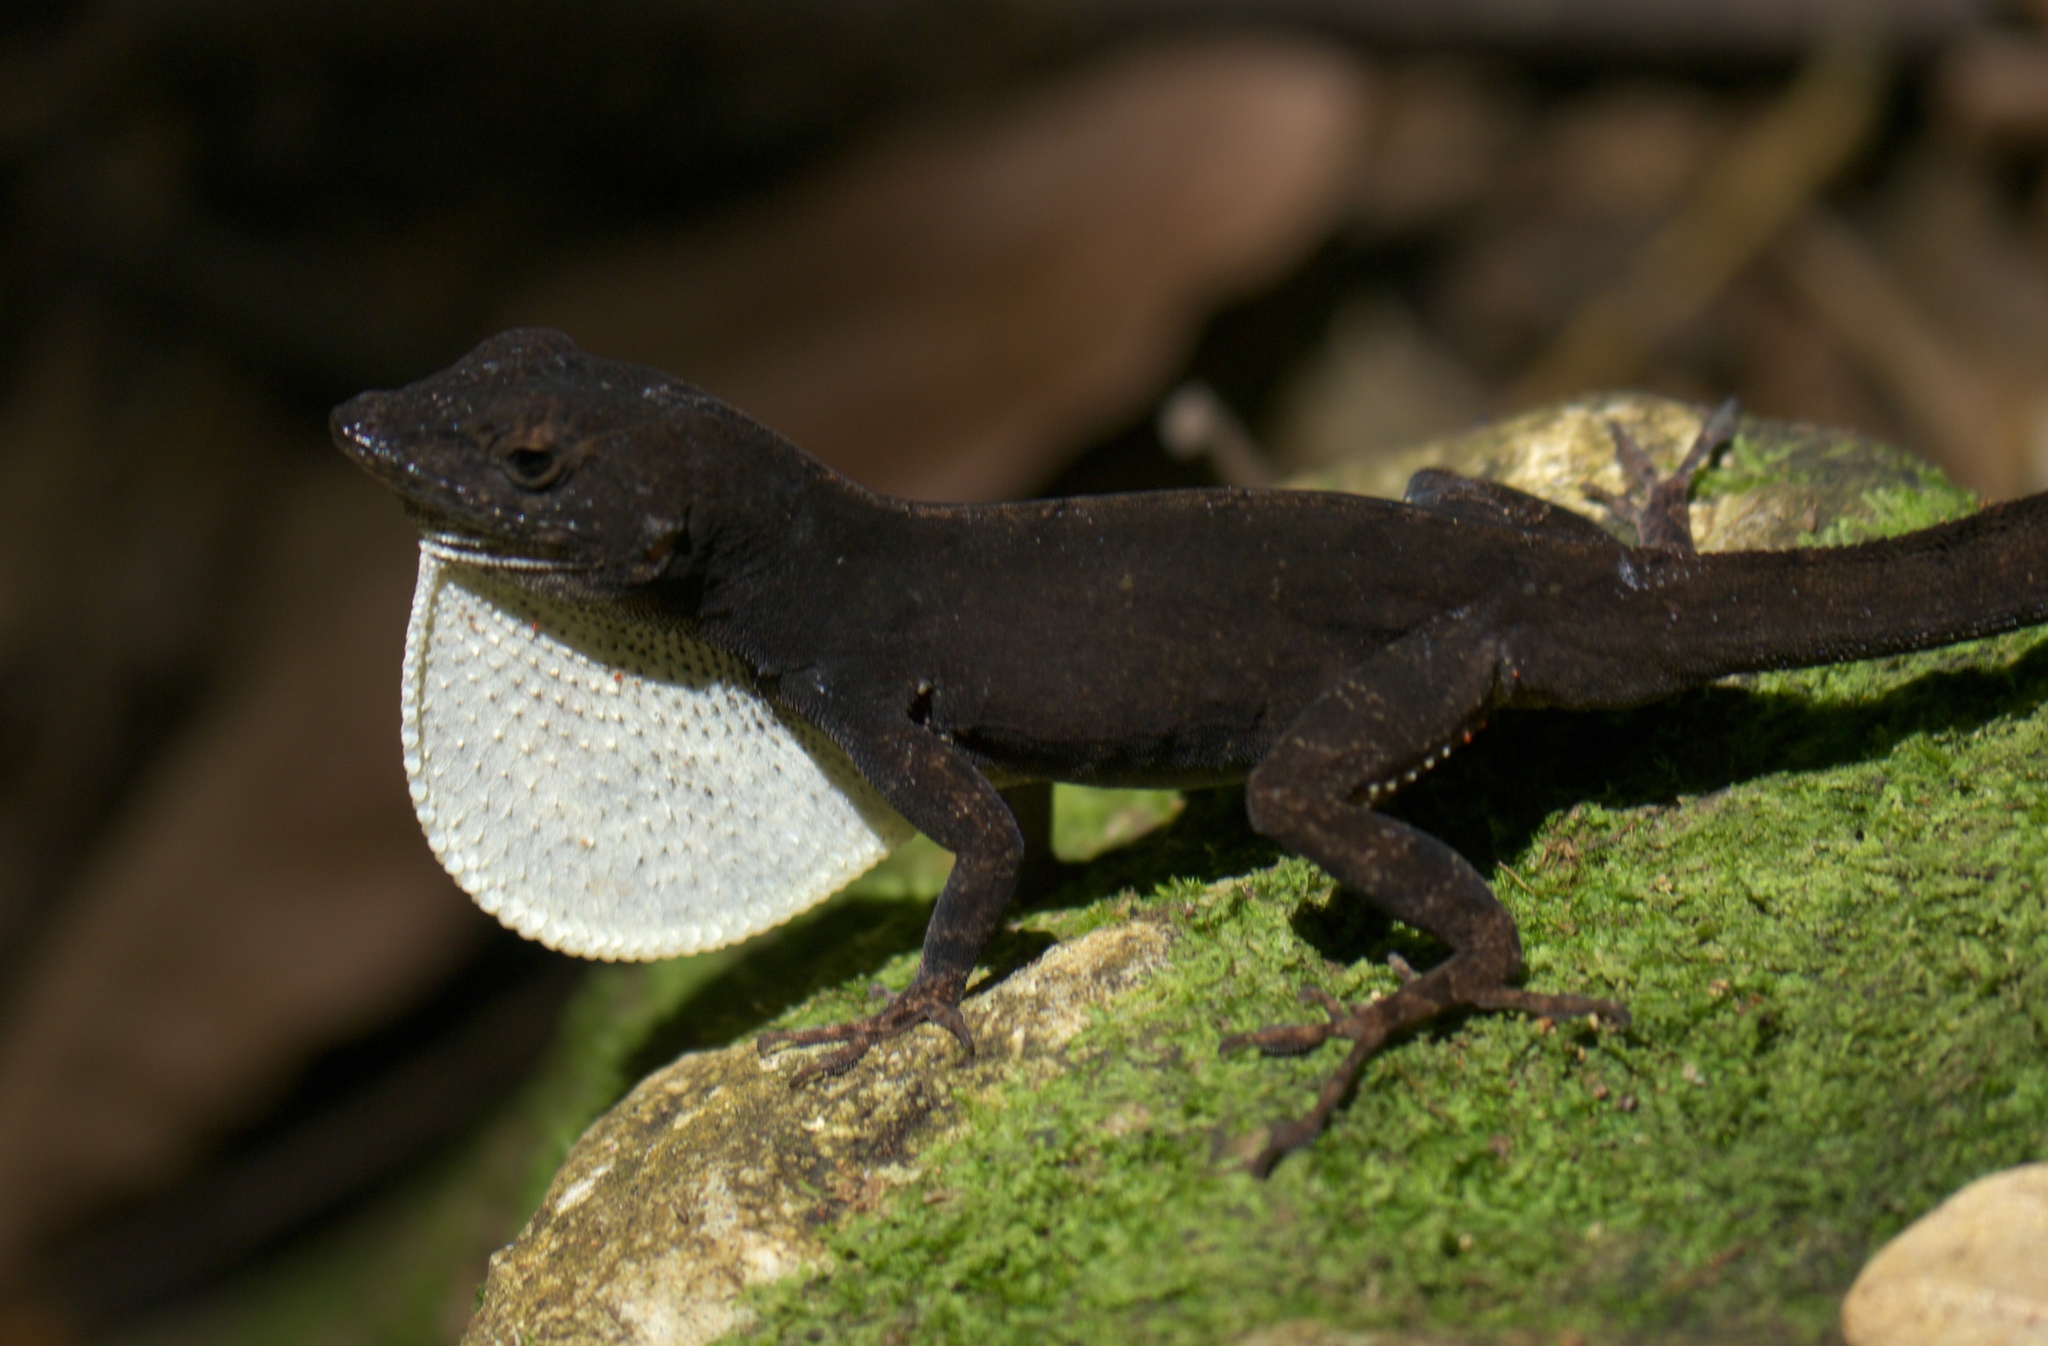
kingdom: Animalia
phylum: Chordata
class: Squamata
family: Dactyloidae
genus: Anolis
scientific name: Anolis homolechis
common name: Habana anole
